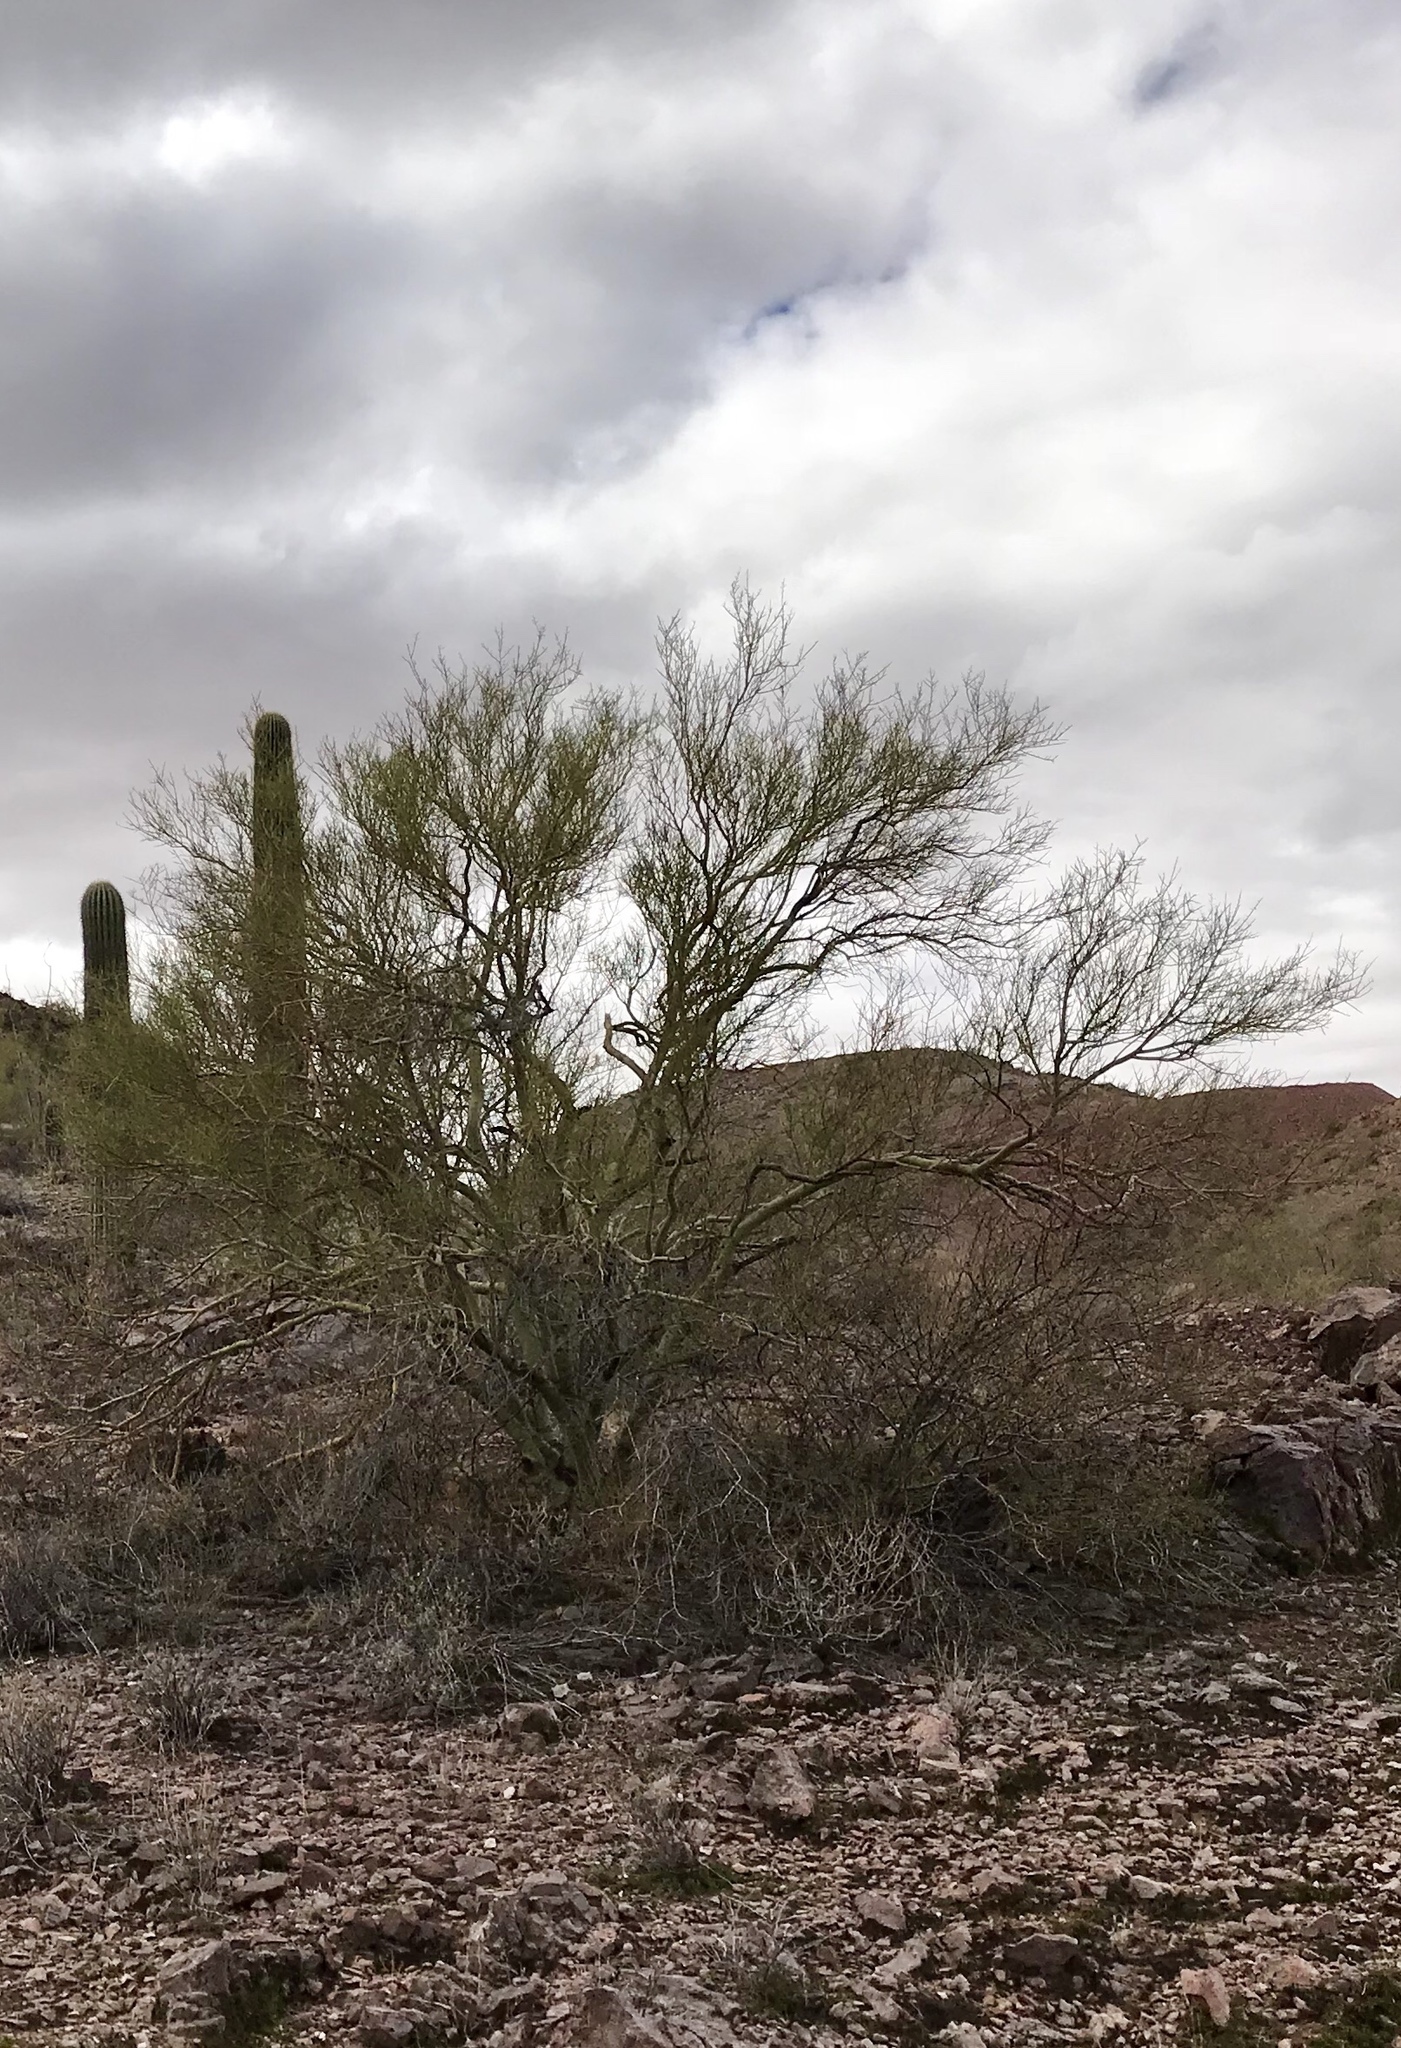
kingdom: Plantae
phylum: Tracheophyta
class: Magnoliopsida
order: Fabales
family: Fabaceae
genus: Parkinsonia
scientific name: Parkinsonia microphylla
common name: Yellow paloverde
